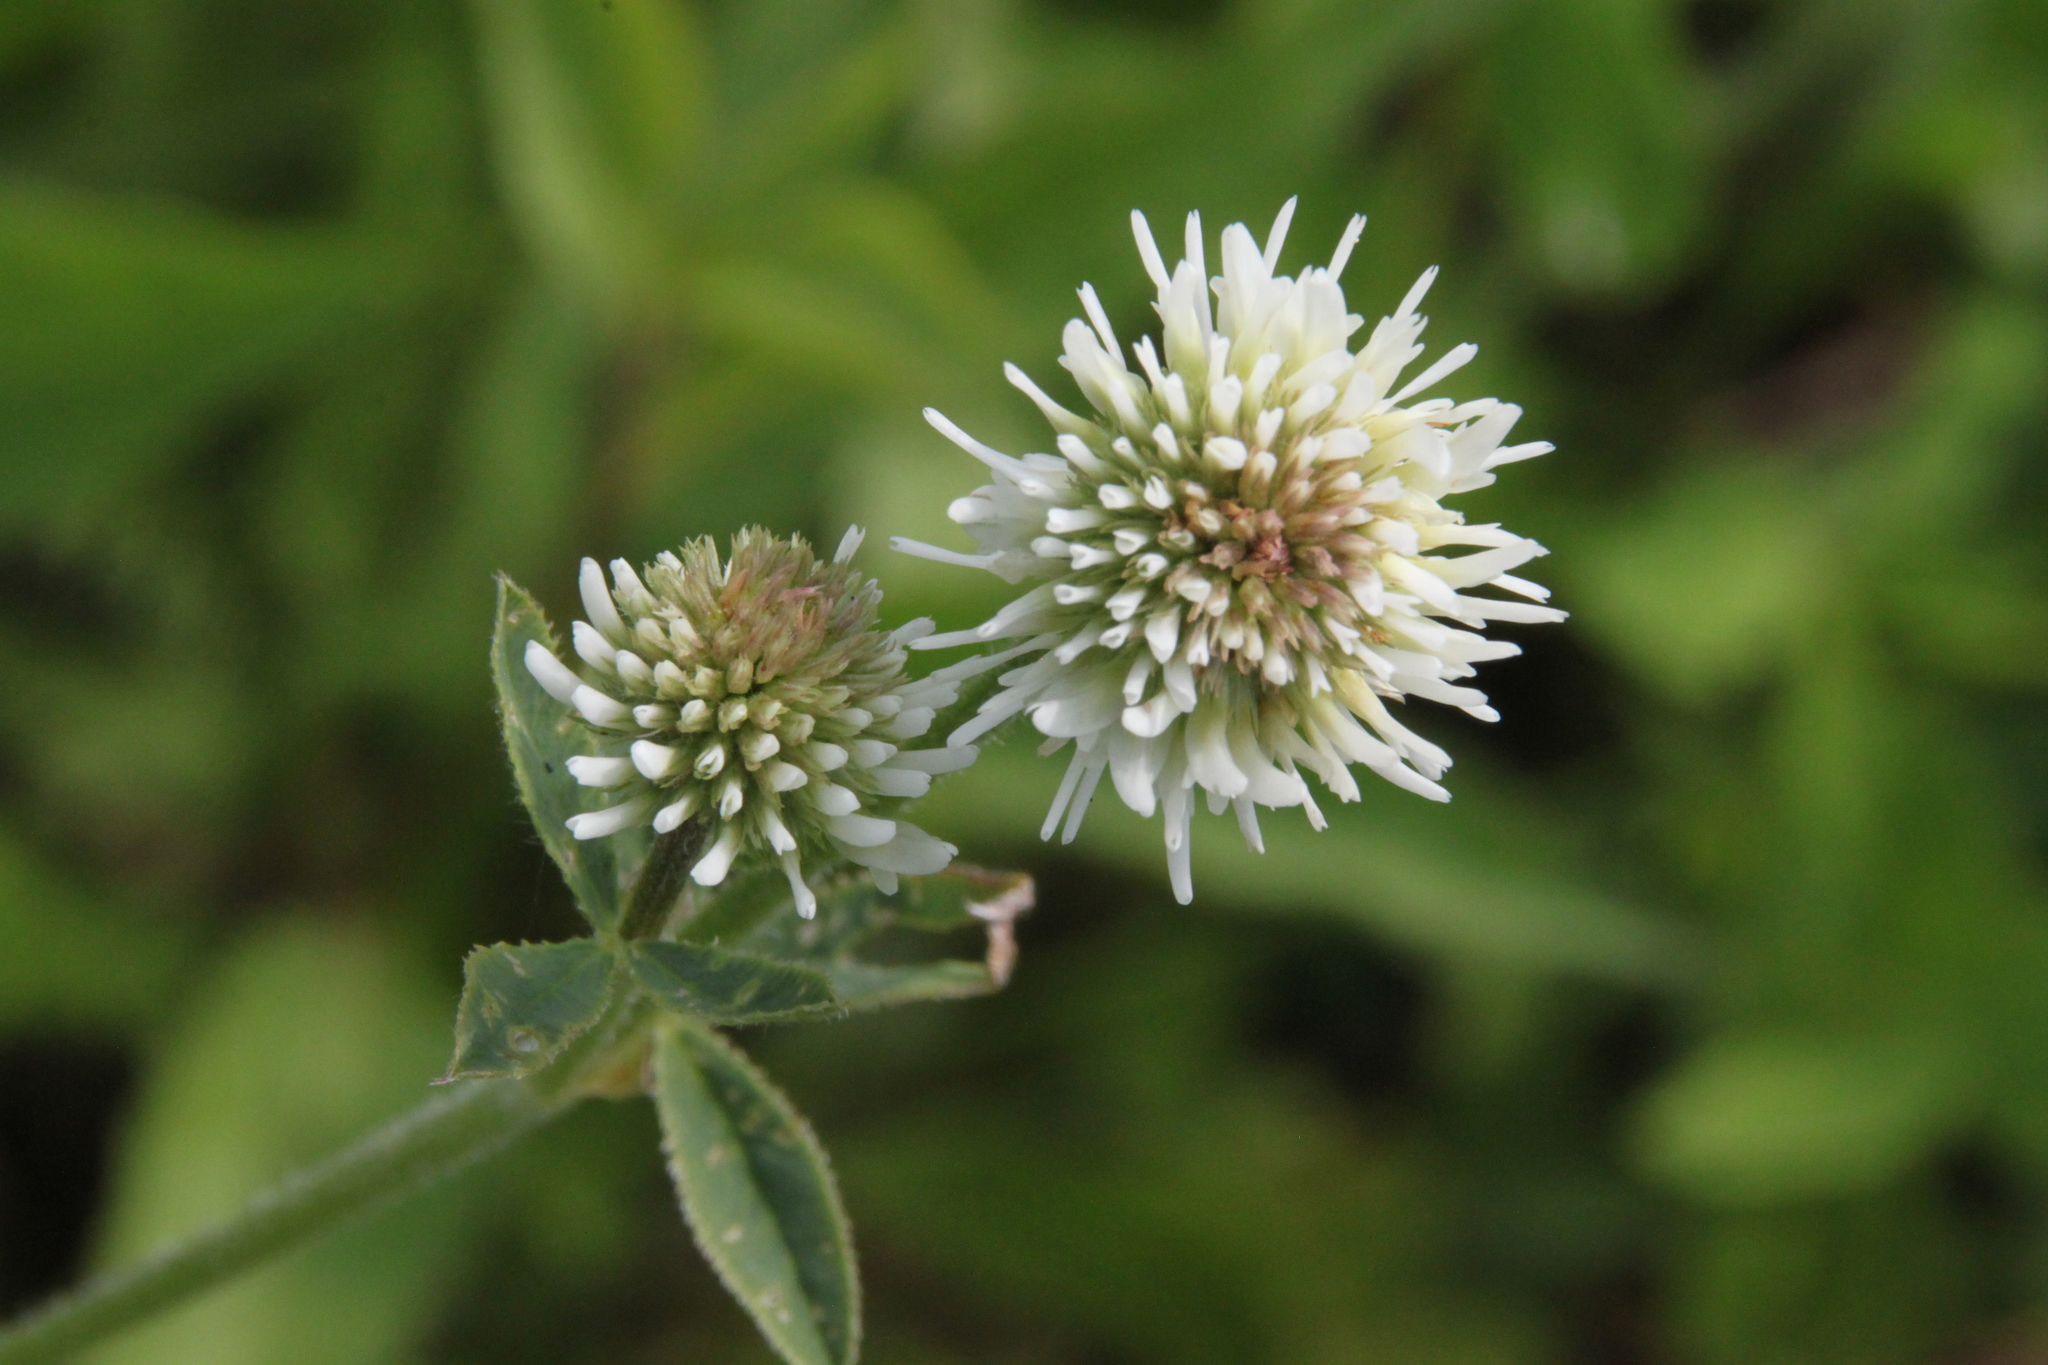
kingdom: Plantae
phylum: Tracheophyta
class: Magnoliopsida
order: Fabales
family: Fabaceae
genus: Trifolium
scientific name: Trifolium montanum
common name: Mountain clover
